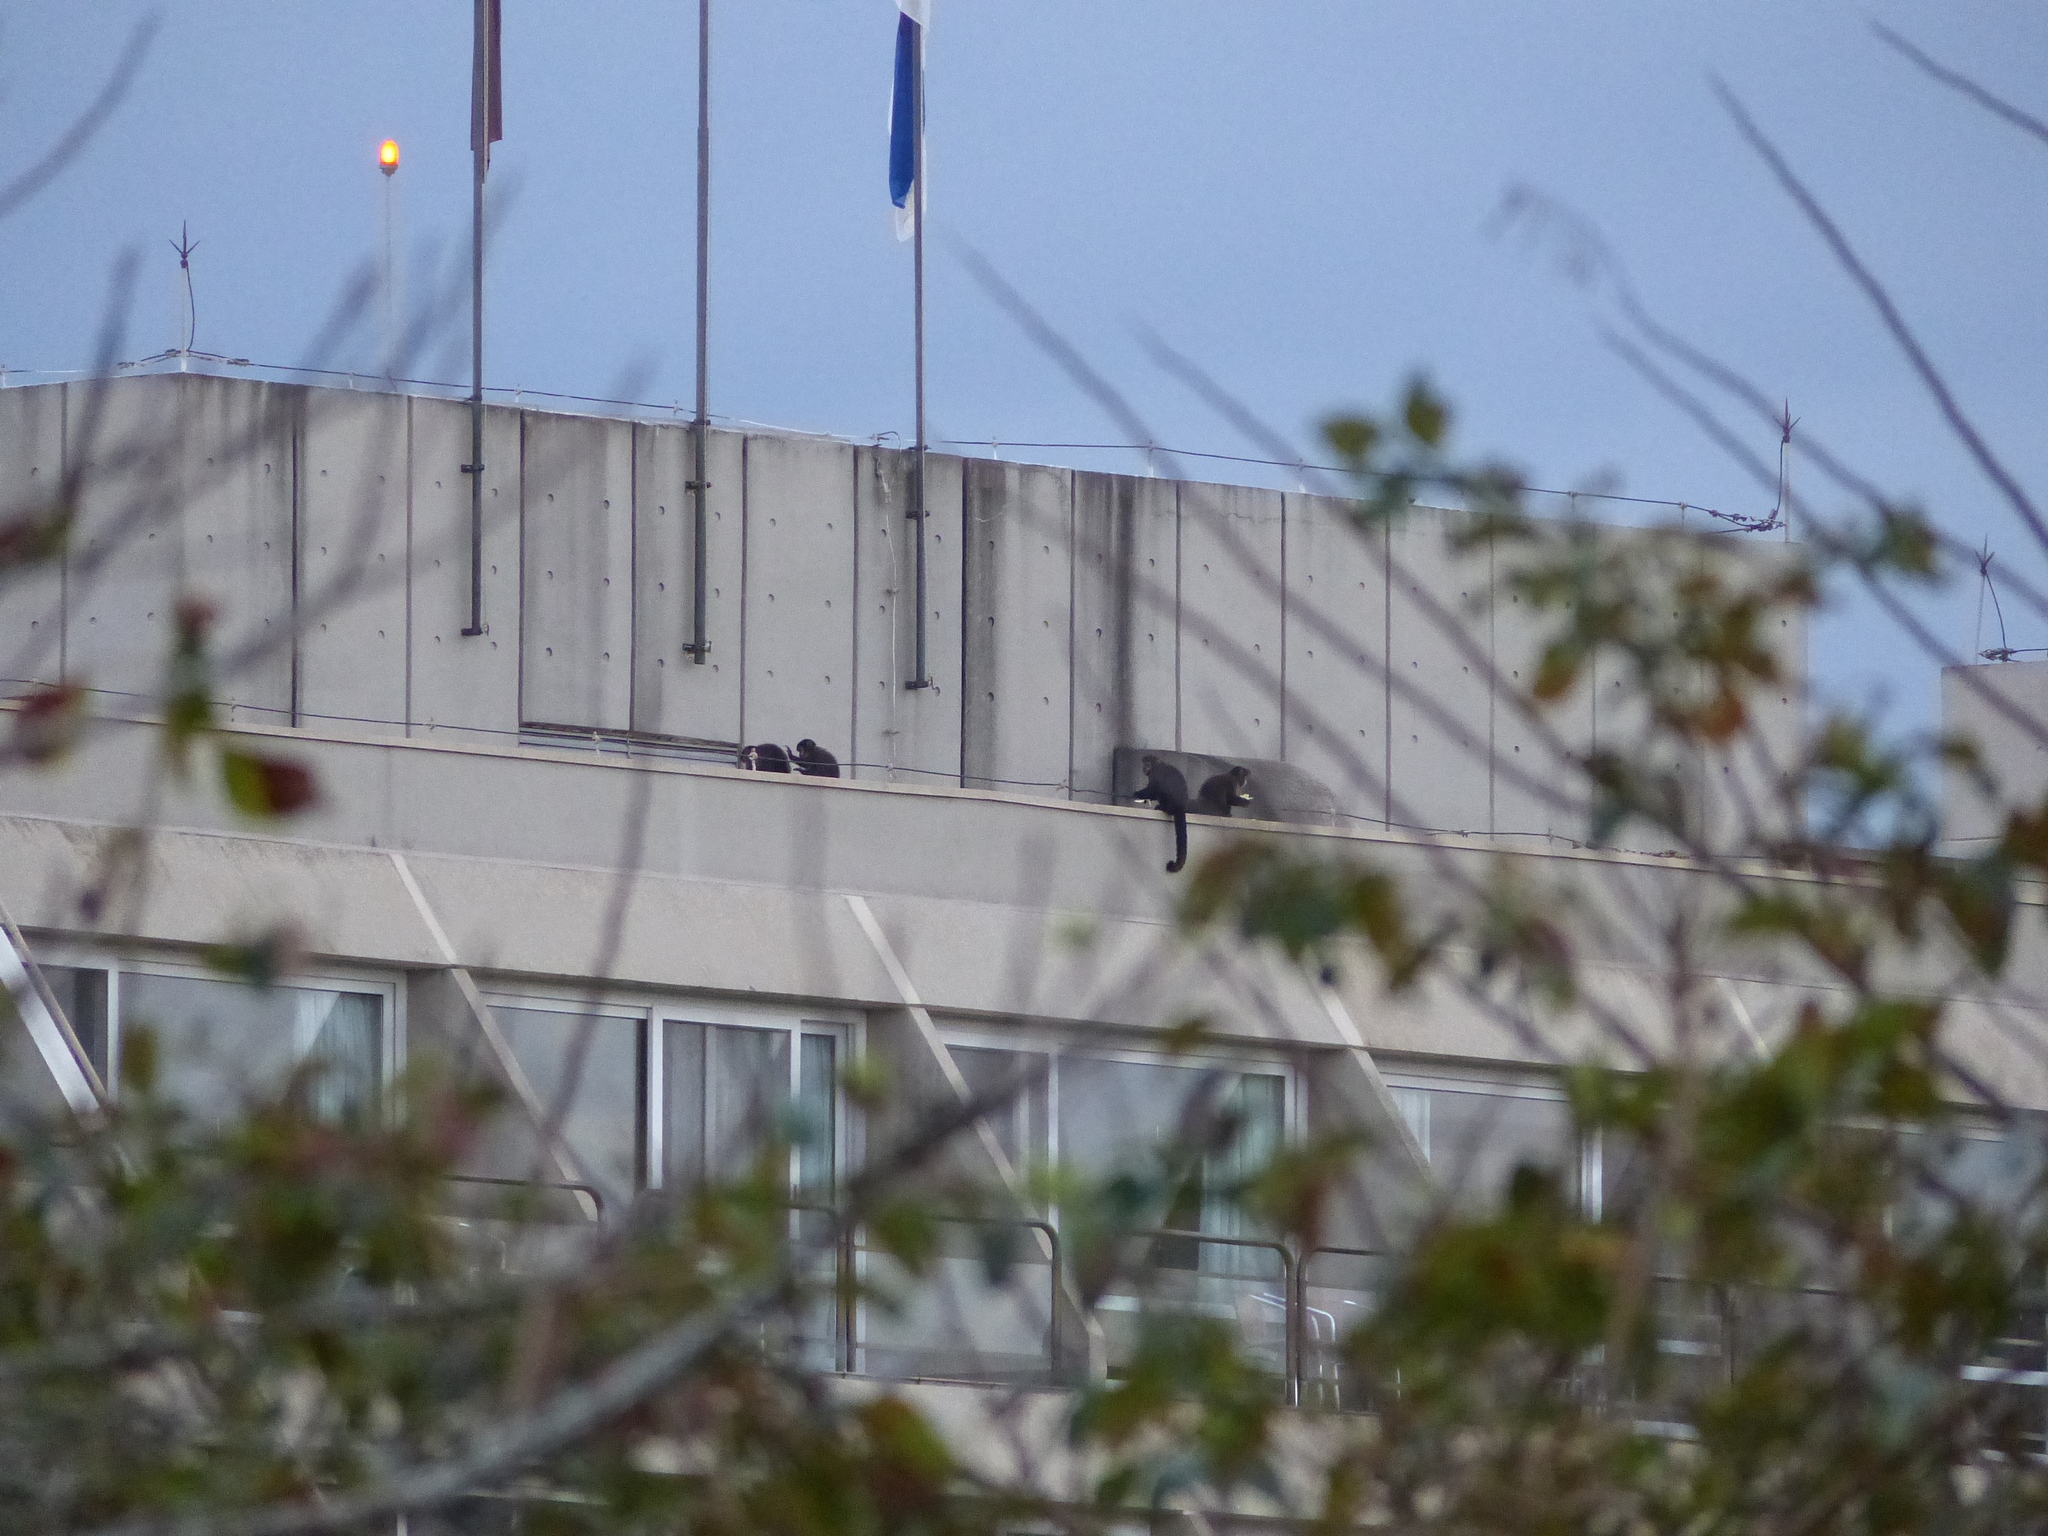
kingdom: Animalia
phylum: Chordata
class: Mammalia
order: Primates
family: Cebidae
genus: Sapajus
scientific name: Sapajus nigritus
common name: Black capuchin
